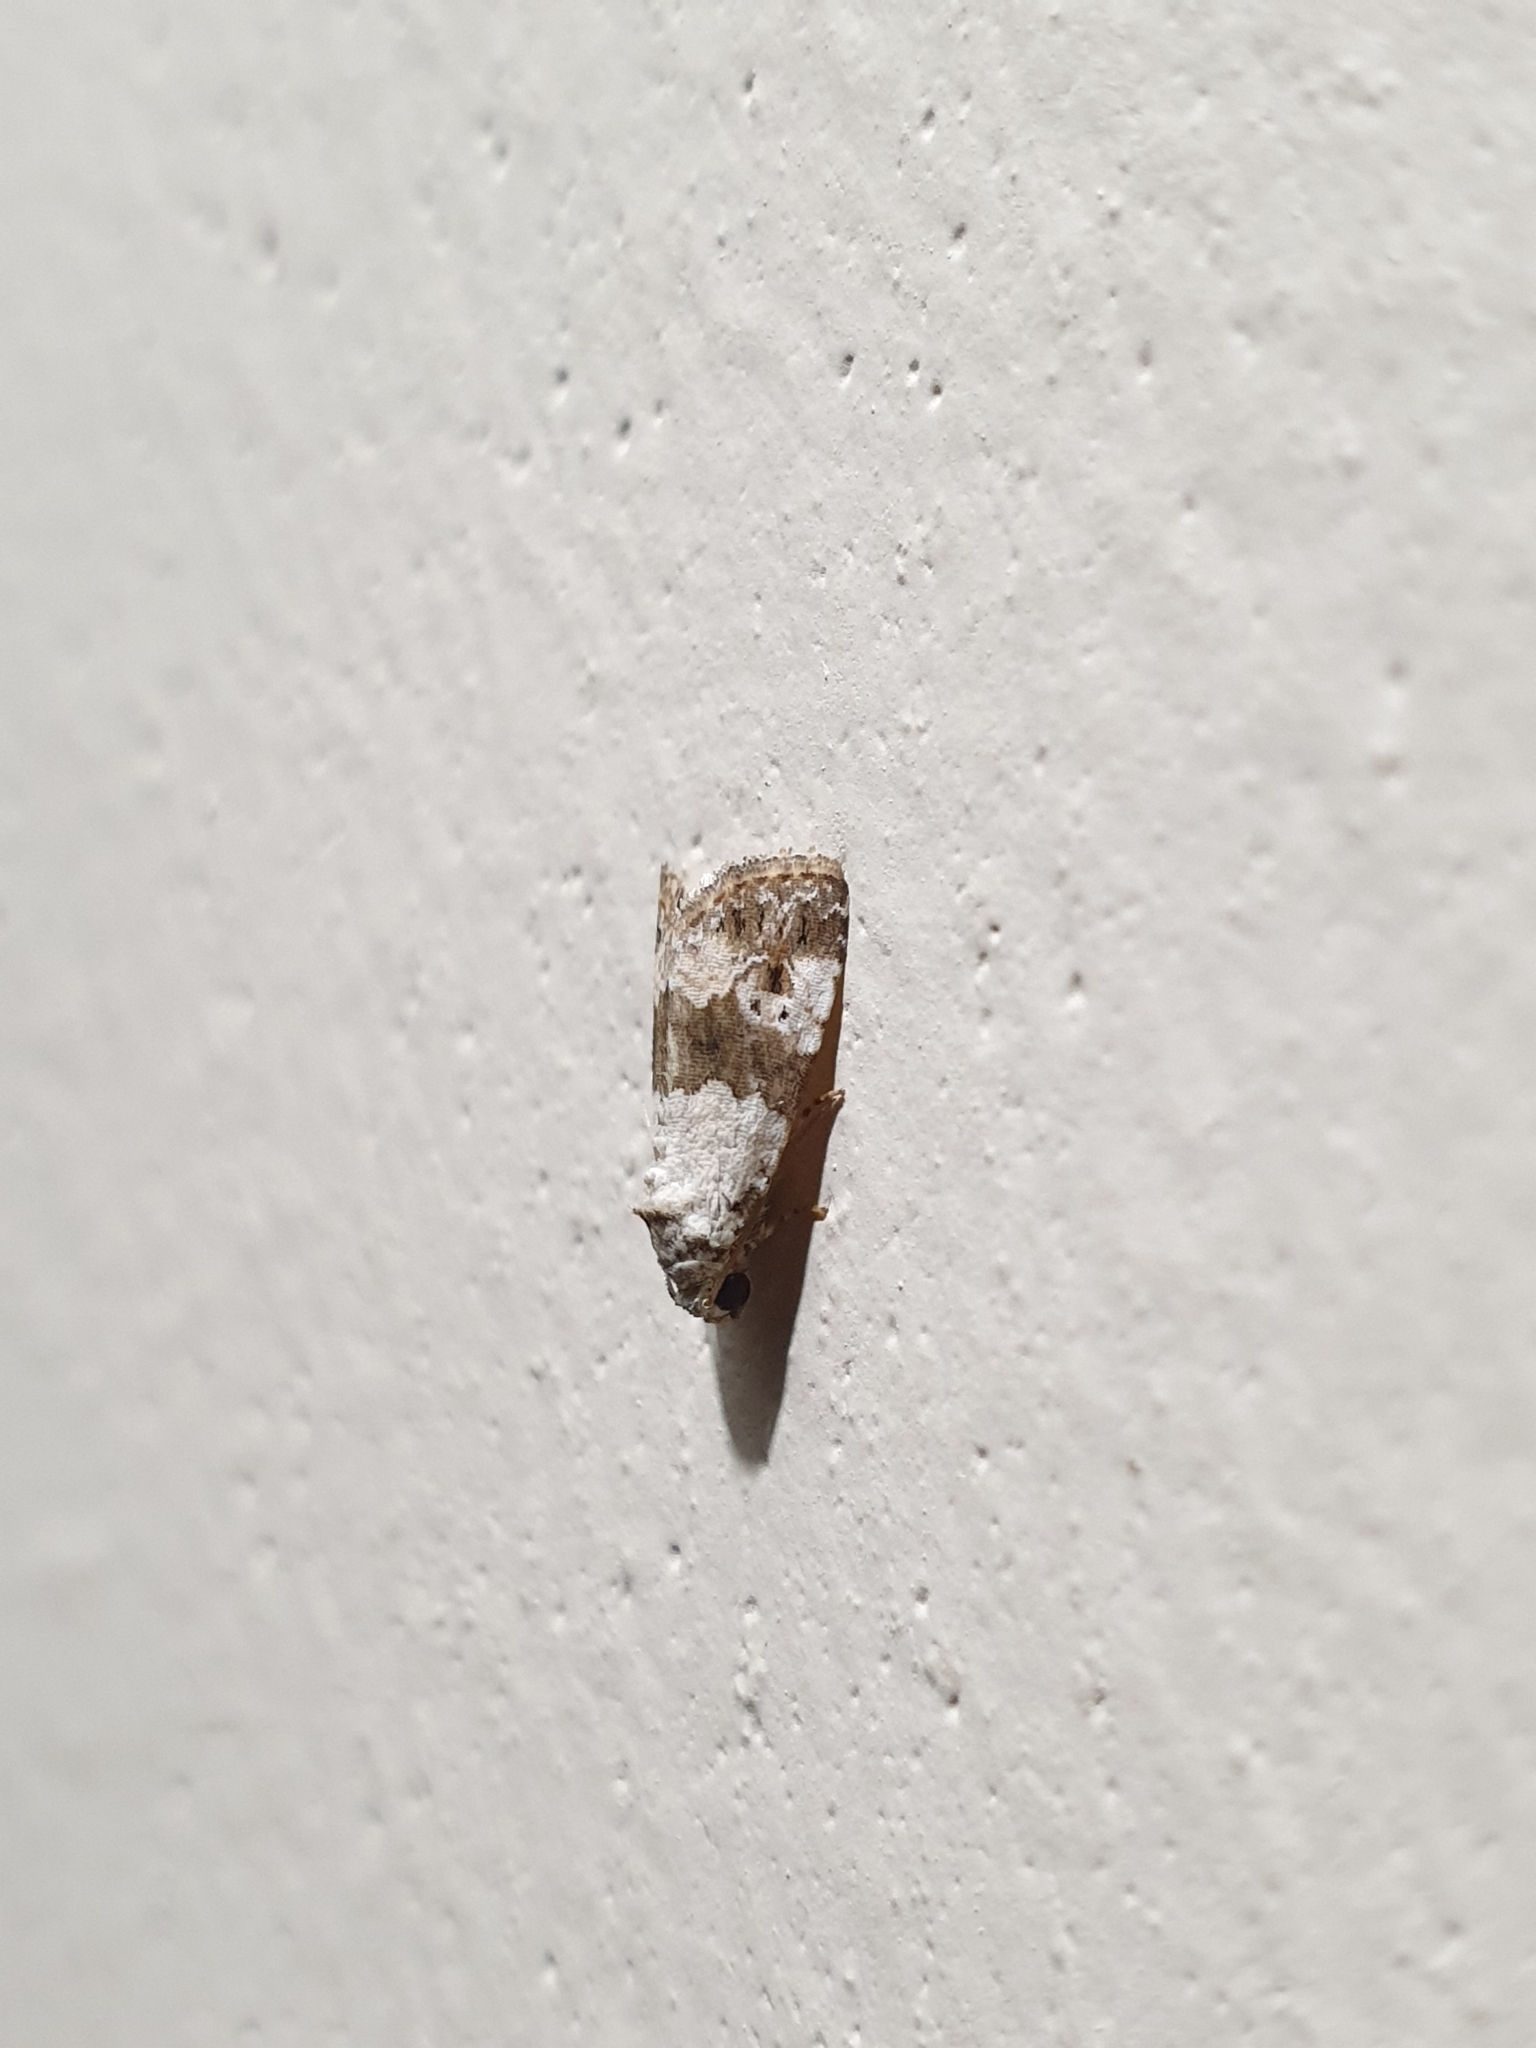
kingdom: Animalia
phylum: Arthropoda
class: Insecta
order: Lepidoptera
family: Noctuidae
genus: Maliattha
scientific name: Maliattha signifera
